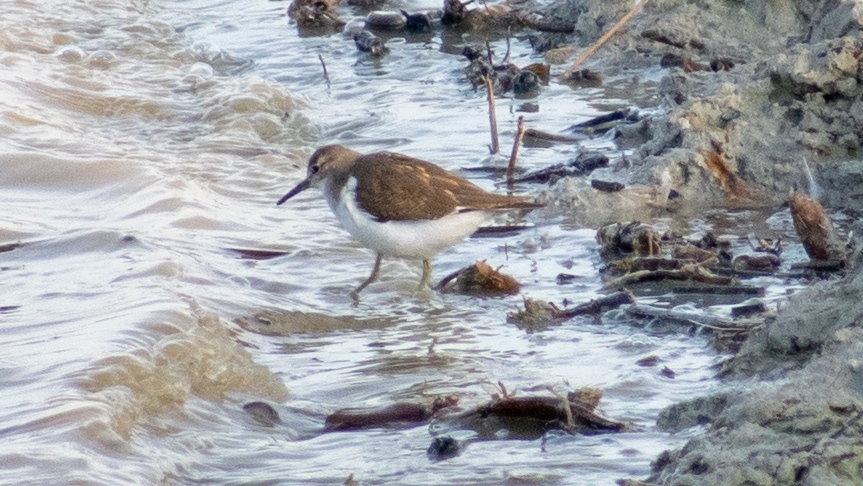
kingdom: Animalia
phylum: Chordata
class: Aves
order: Charadriiformes
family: Scolopacidae
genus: Actitis
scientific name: Actitis hypoleucos
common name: Common sandpiper
